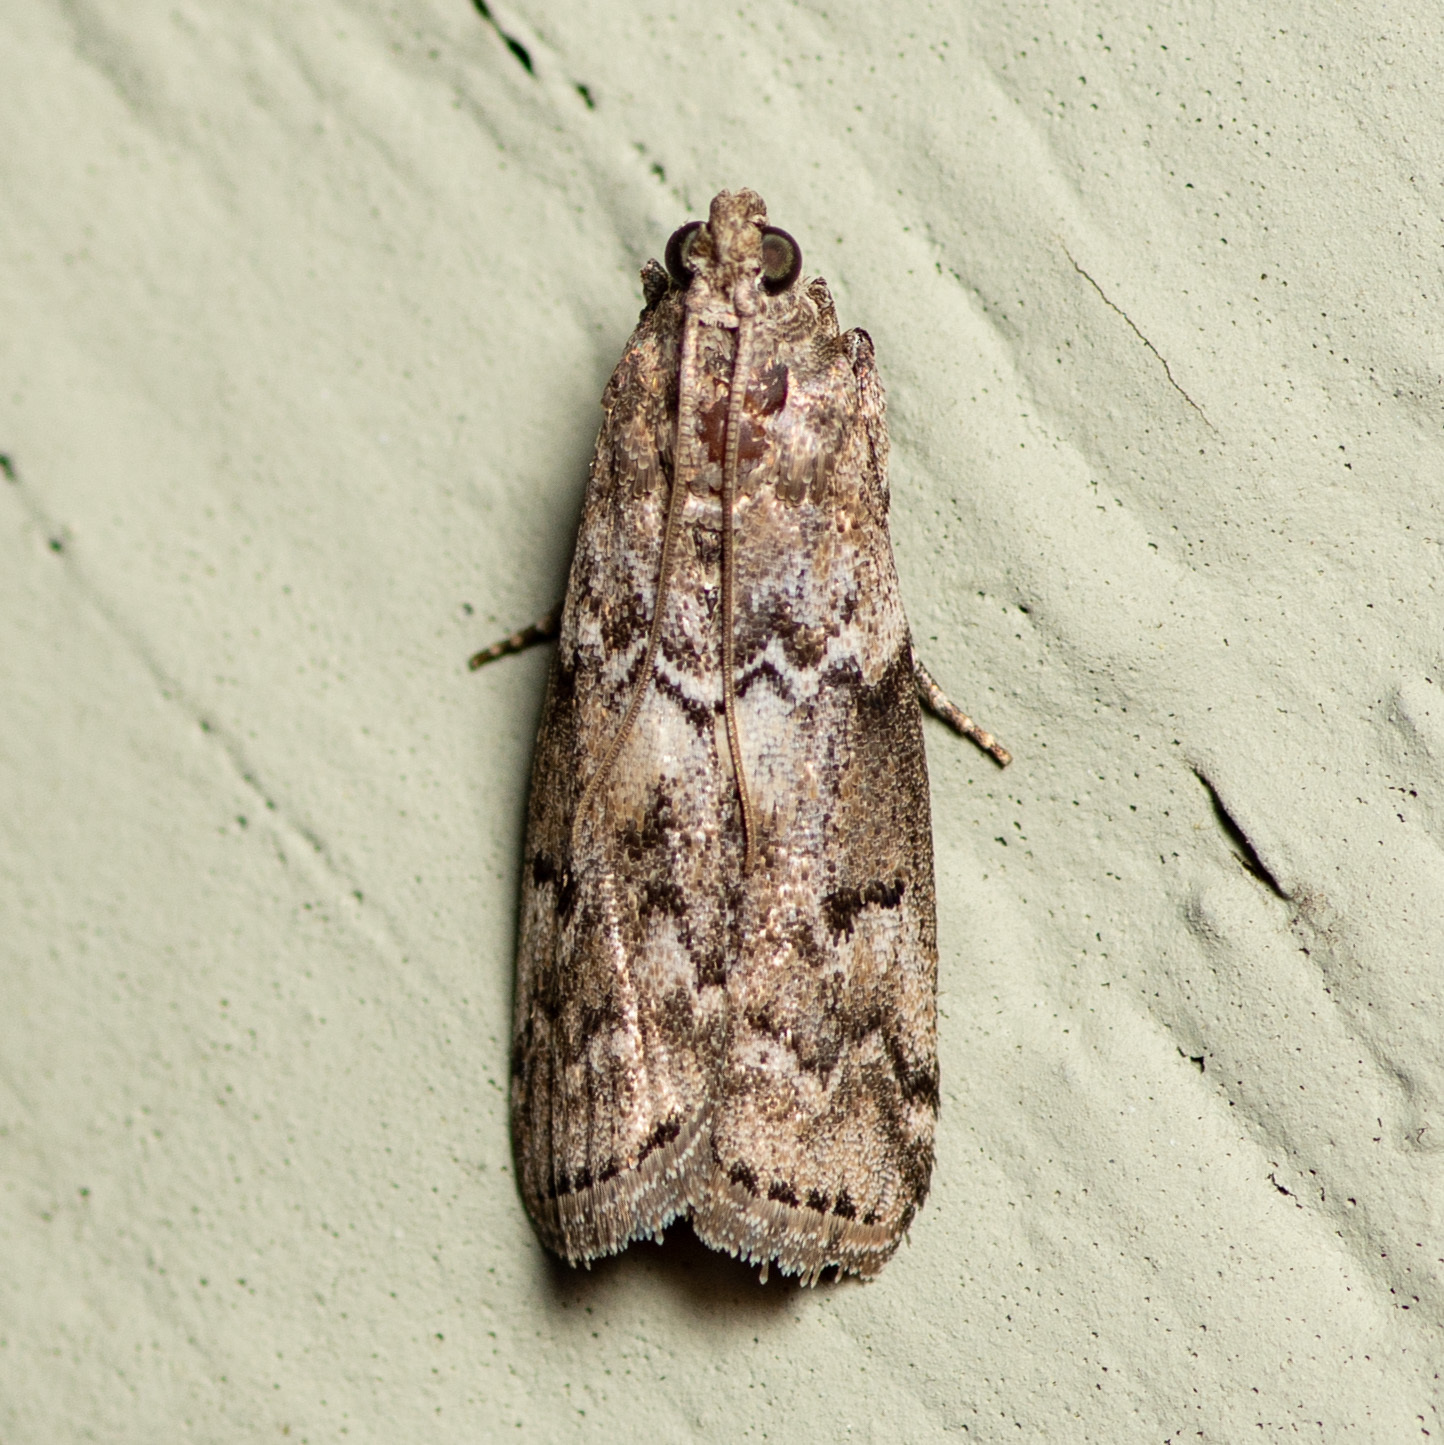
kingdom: Animalia
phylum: Arthropoda
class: Insecta
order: Lepidoptera
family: Pyralidae
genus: Ancylosis
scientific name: Ancylosis Canarsia ulmiarrosorella
